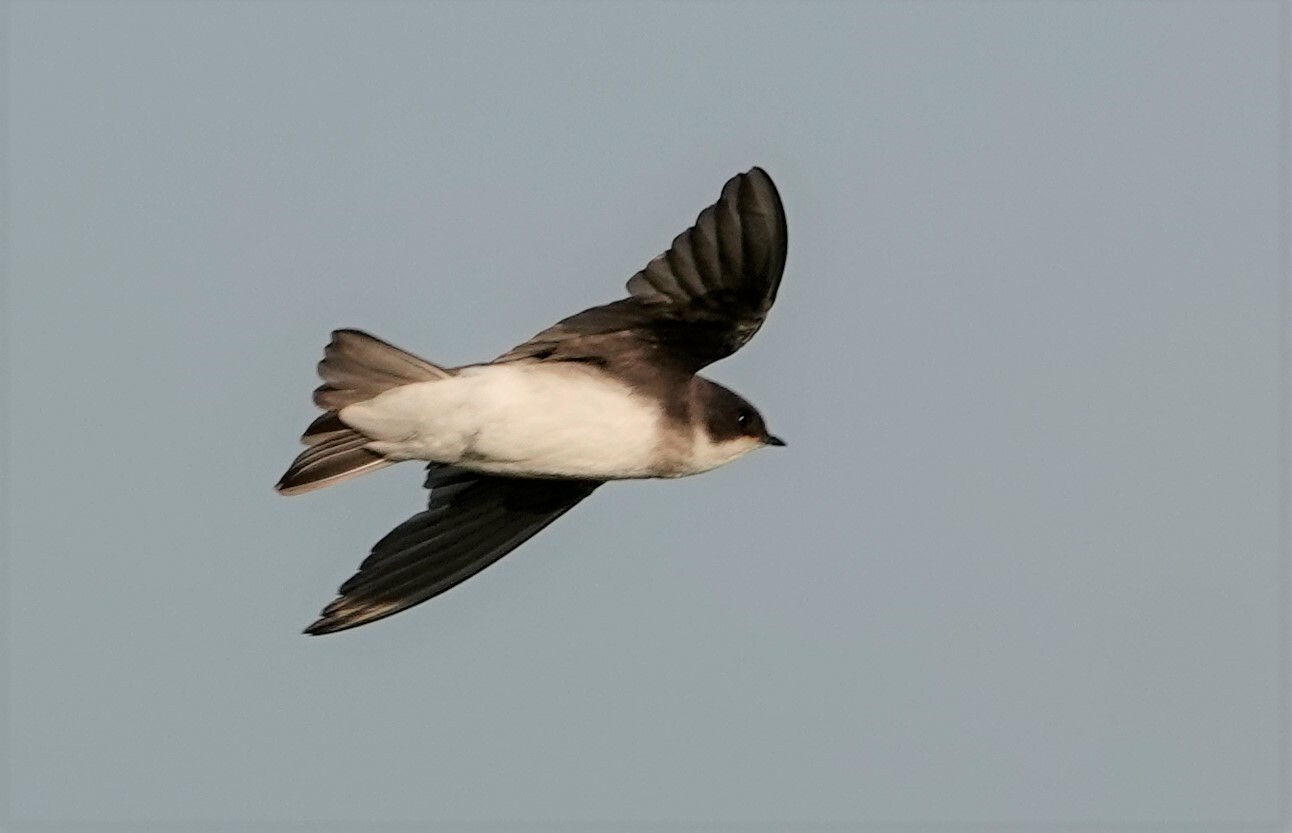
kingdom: Animalia
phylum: Chordata
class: Aves
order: Passeriformes
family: Hirundinidae
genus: Tachycineta
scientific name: Tachycineta bicolor
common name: Tree swallow
